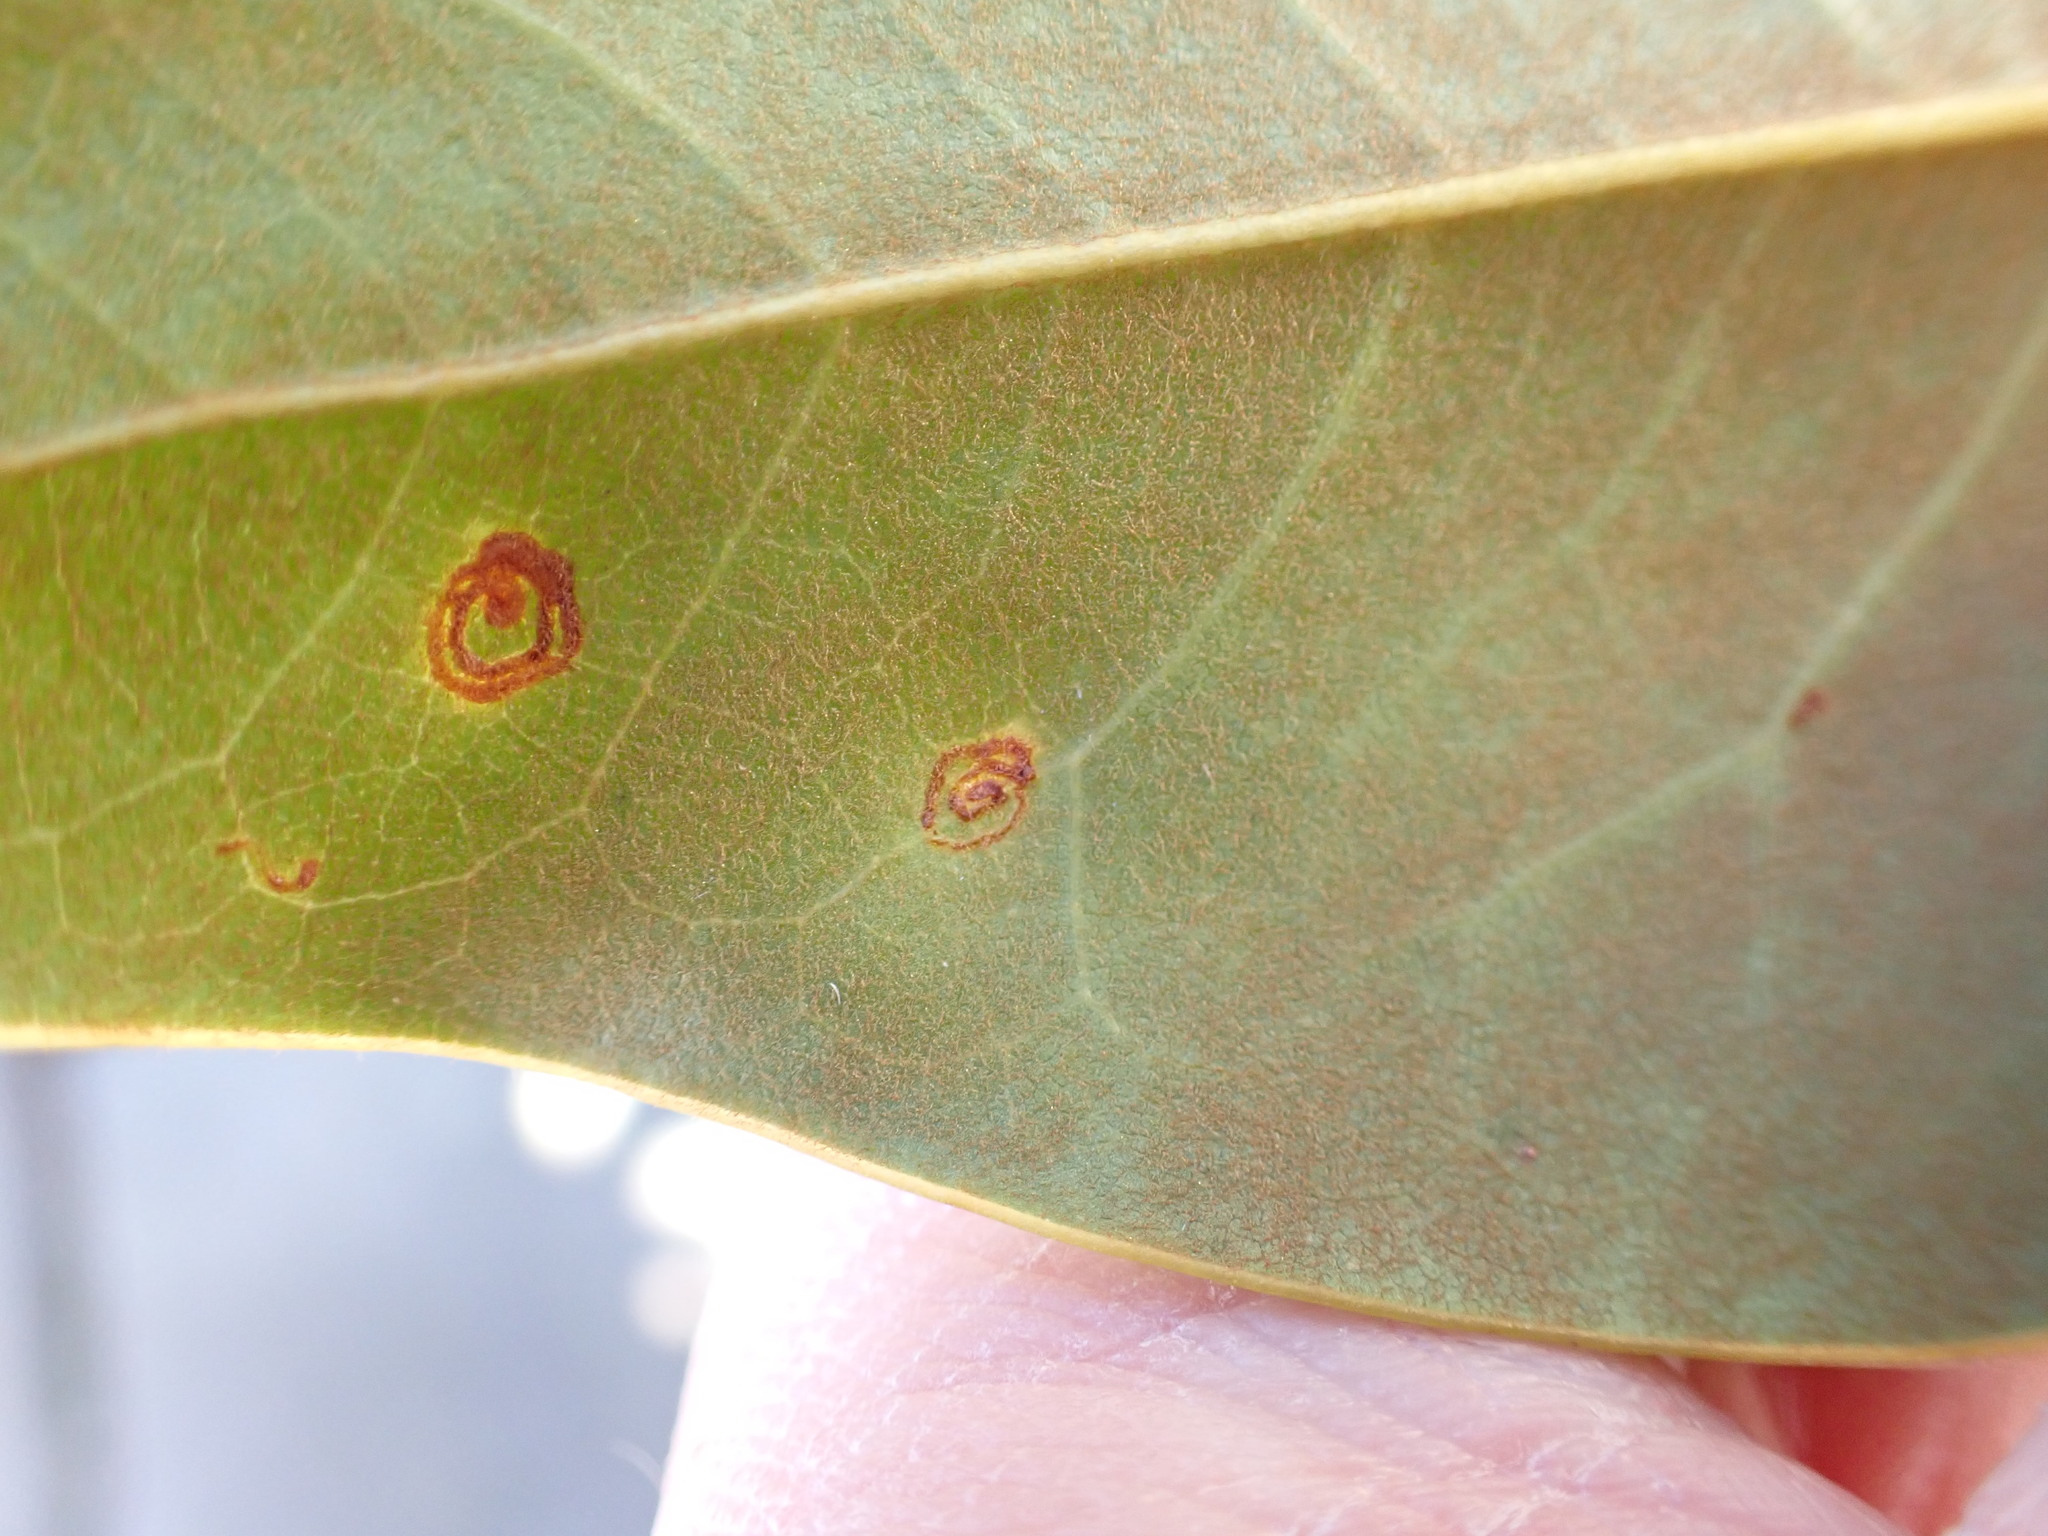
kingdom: Animalia
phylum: Arthropoda
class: Insecta
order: Lepidoptera
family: Gracillariidae
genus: Phyllocnistis
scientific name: Phyllocnistis liriodendronella
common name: Tulip tree leaf miner
